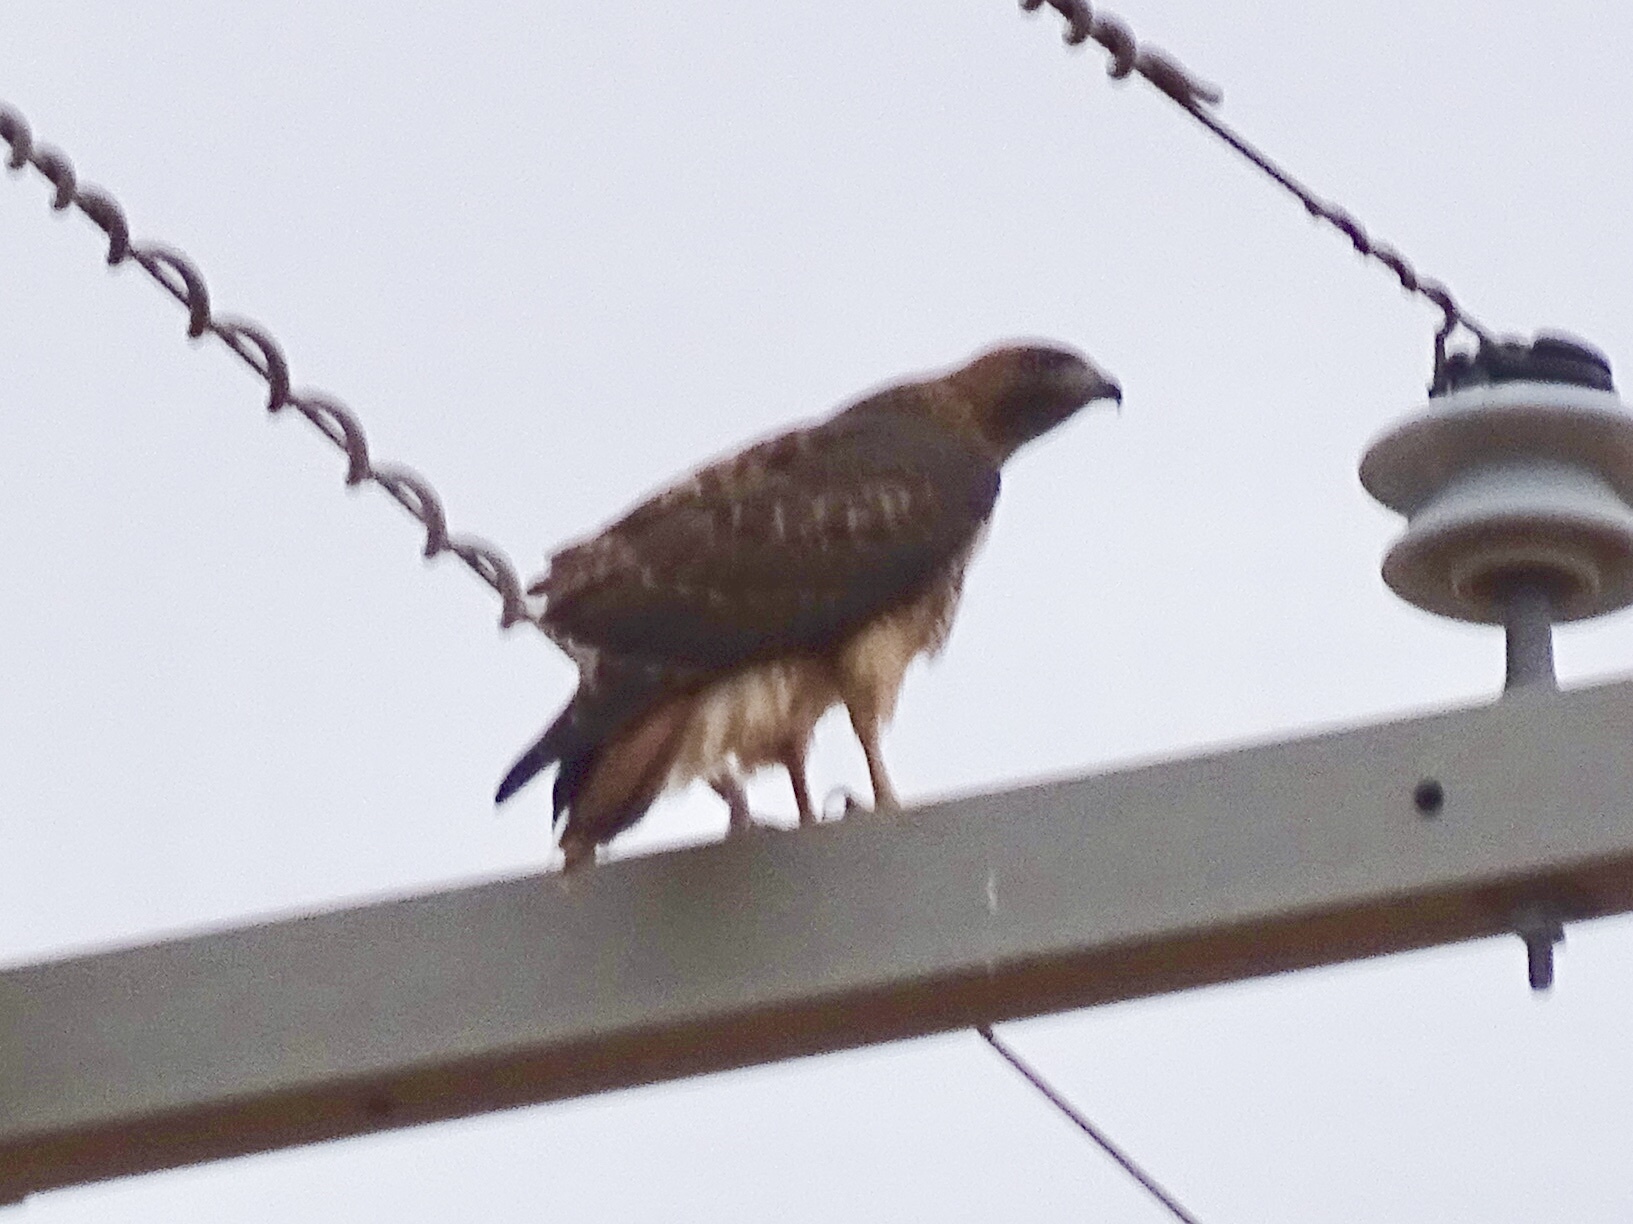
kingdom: Animalia
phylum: Chordata
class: Aves
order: Accipitriformes
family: Accipitridae
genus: Buteo
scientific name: Buteo jamaicensis
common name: Red-tailed hawk
